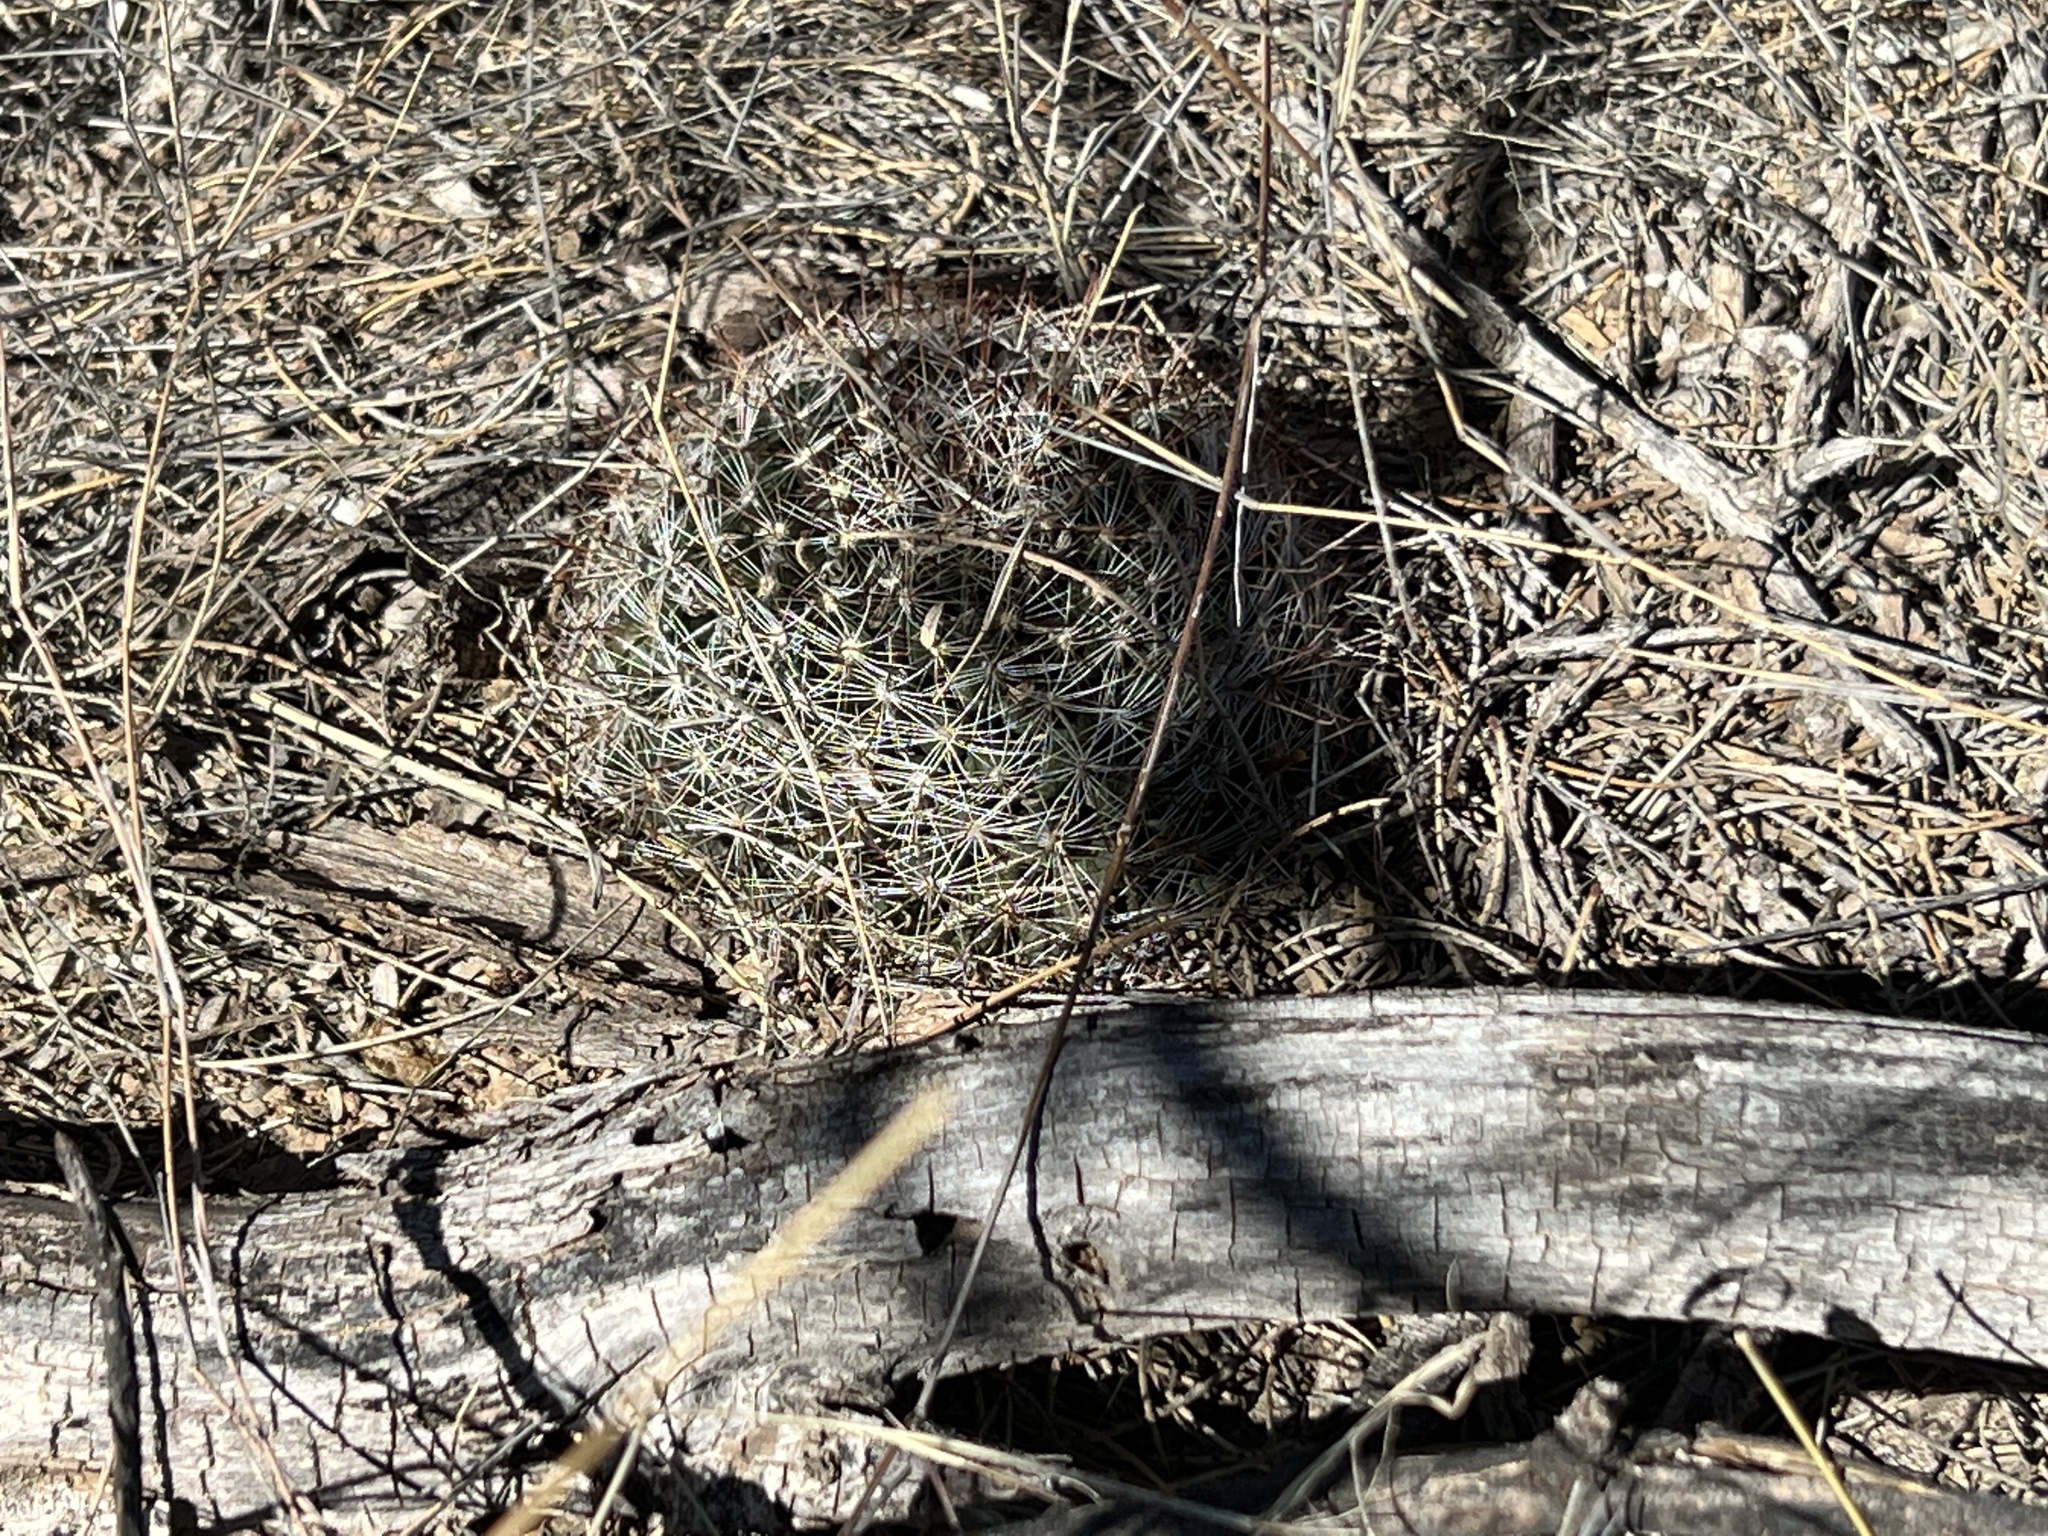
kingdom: Plantae
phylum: Tracheophyta
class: Magnoliopsida
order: Caryophyllales
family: Cactaceae
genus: Cochemiea
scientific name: Cochemiea wrightii
